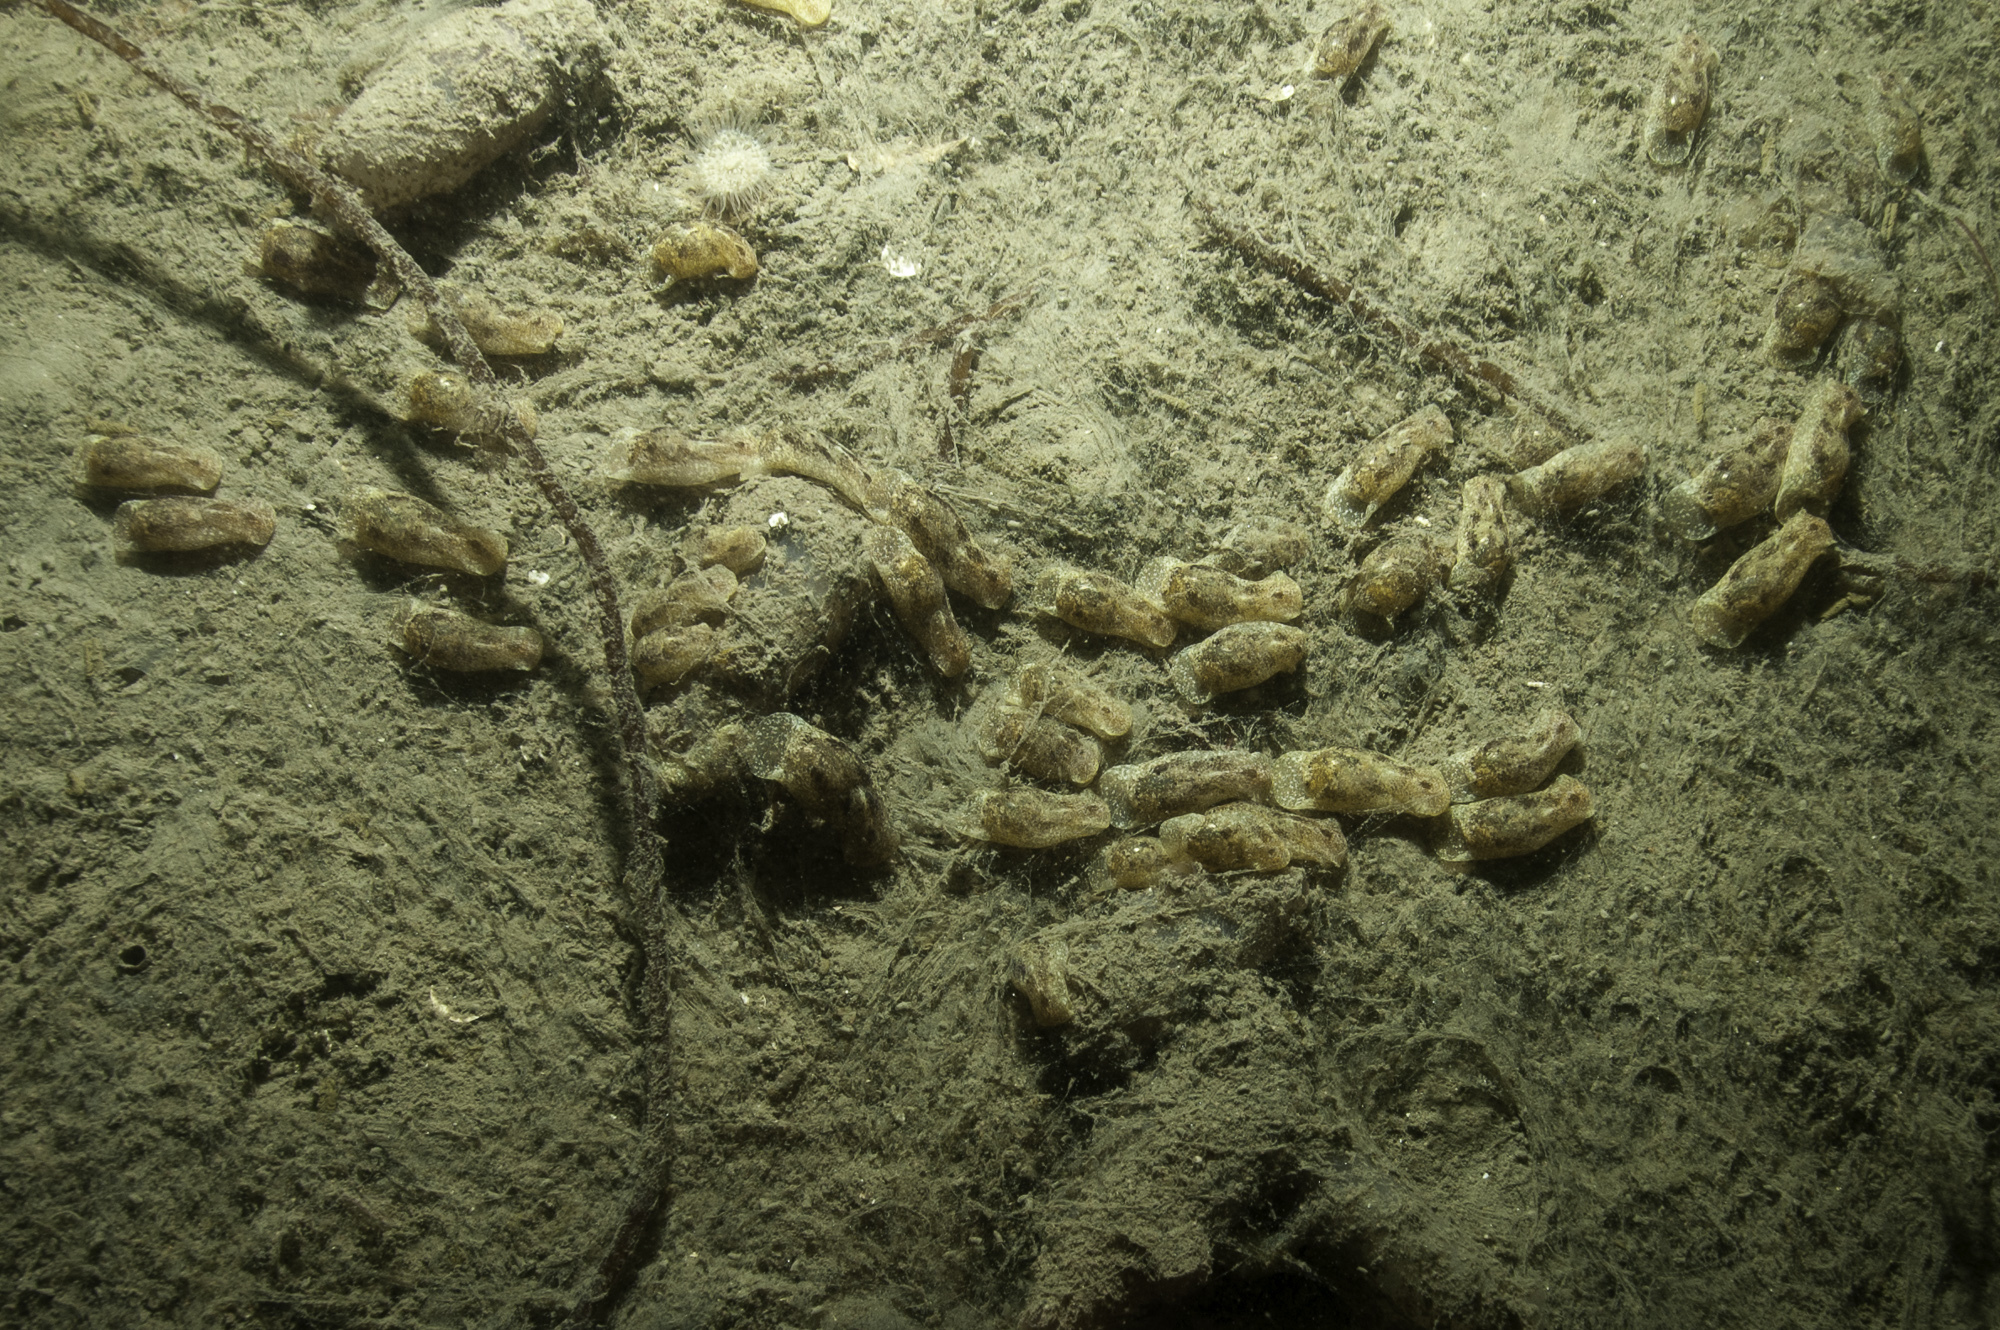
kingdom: Animalia
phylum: Mollusca
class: Gastropoda
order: Cephalaspidea
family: Haminoeidae
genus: Haminoea
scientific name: Haminoea navicula
